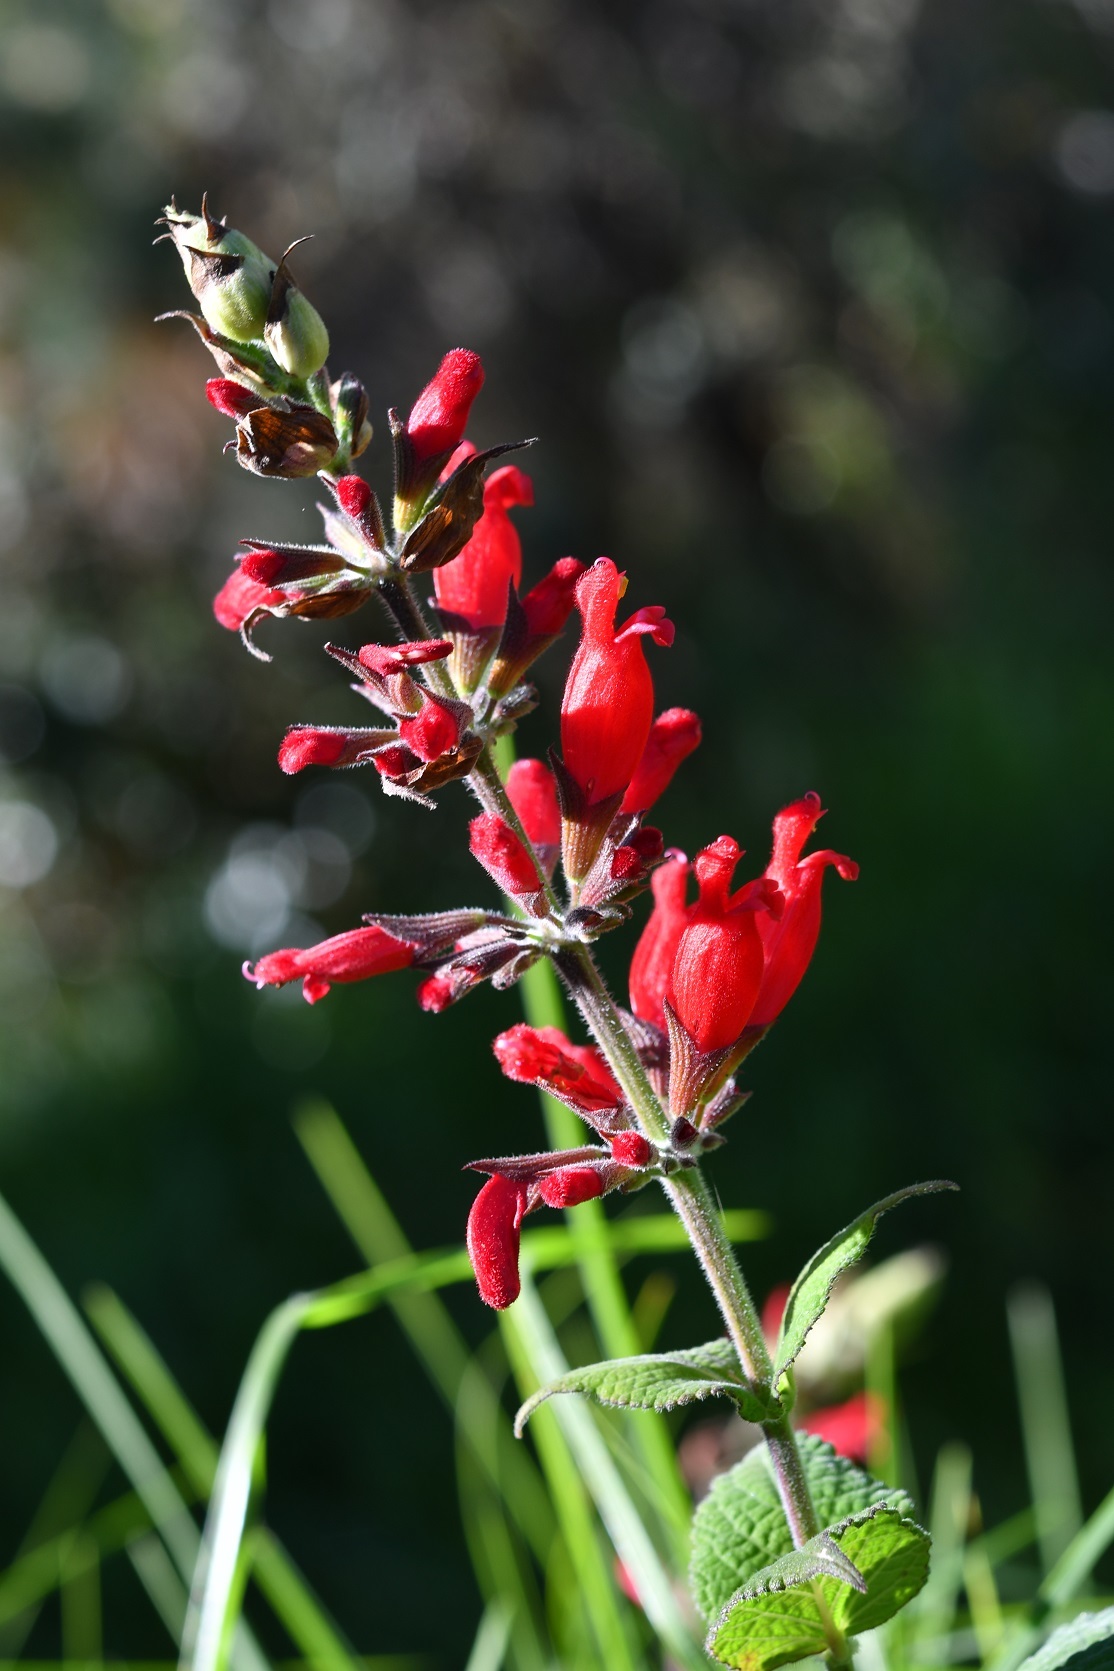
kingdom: Plantae
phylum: Tracheophyta
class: Magnoliopsida
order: Lamiales
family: Lamiaceae
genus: Salvia
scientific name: Salvia holwayi
